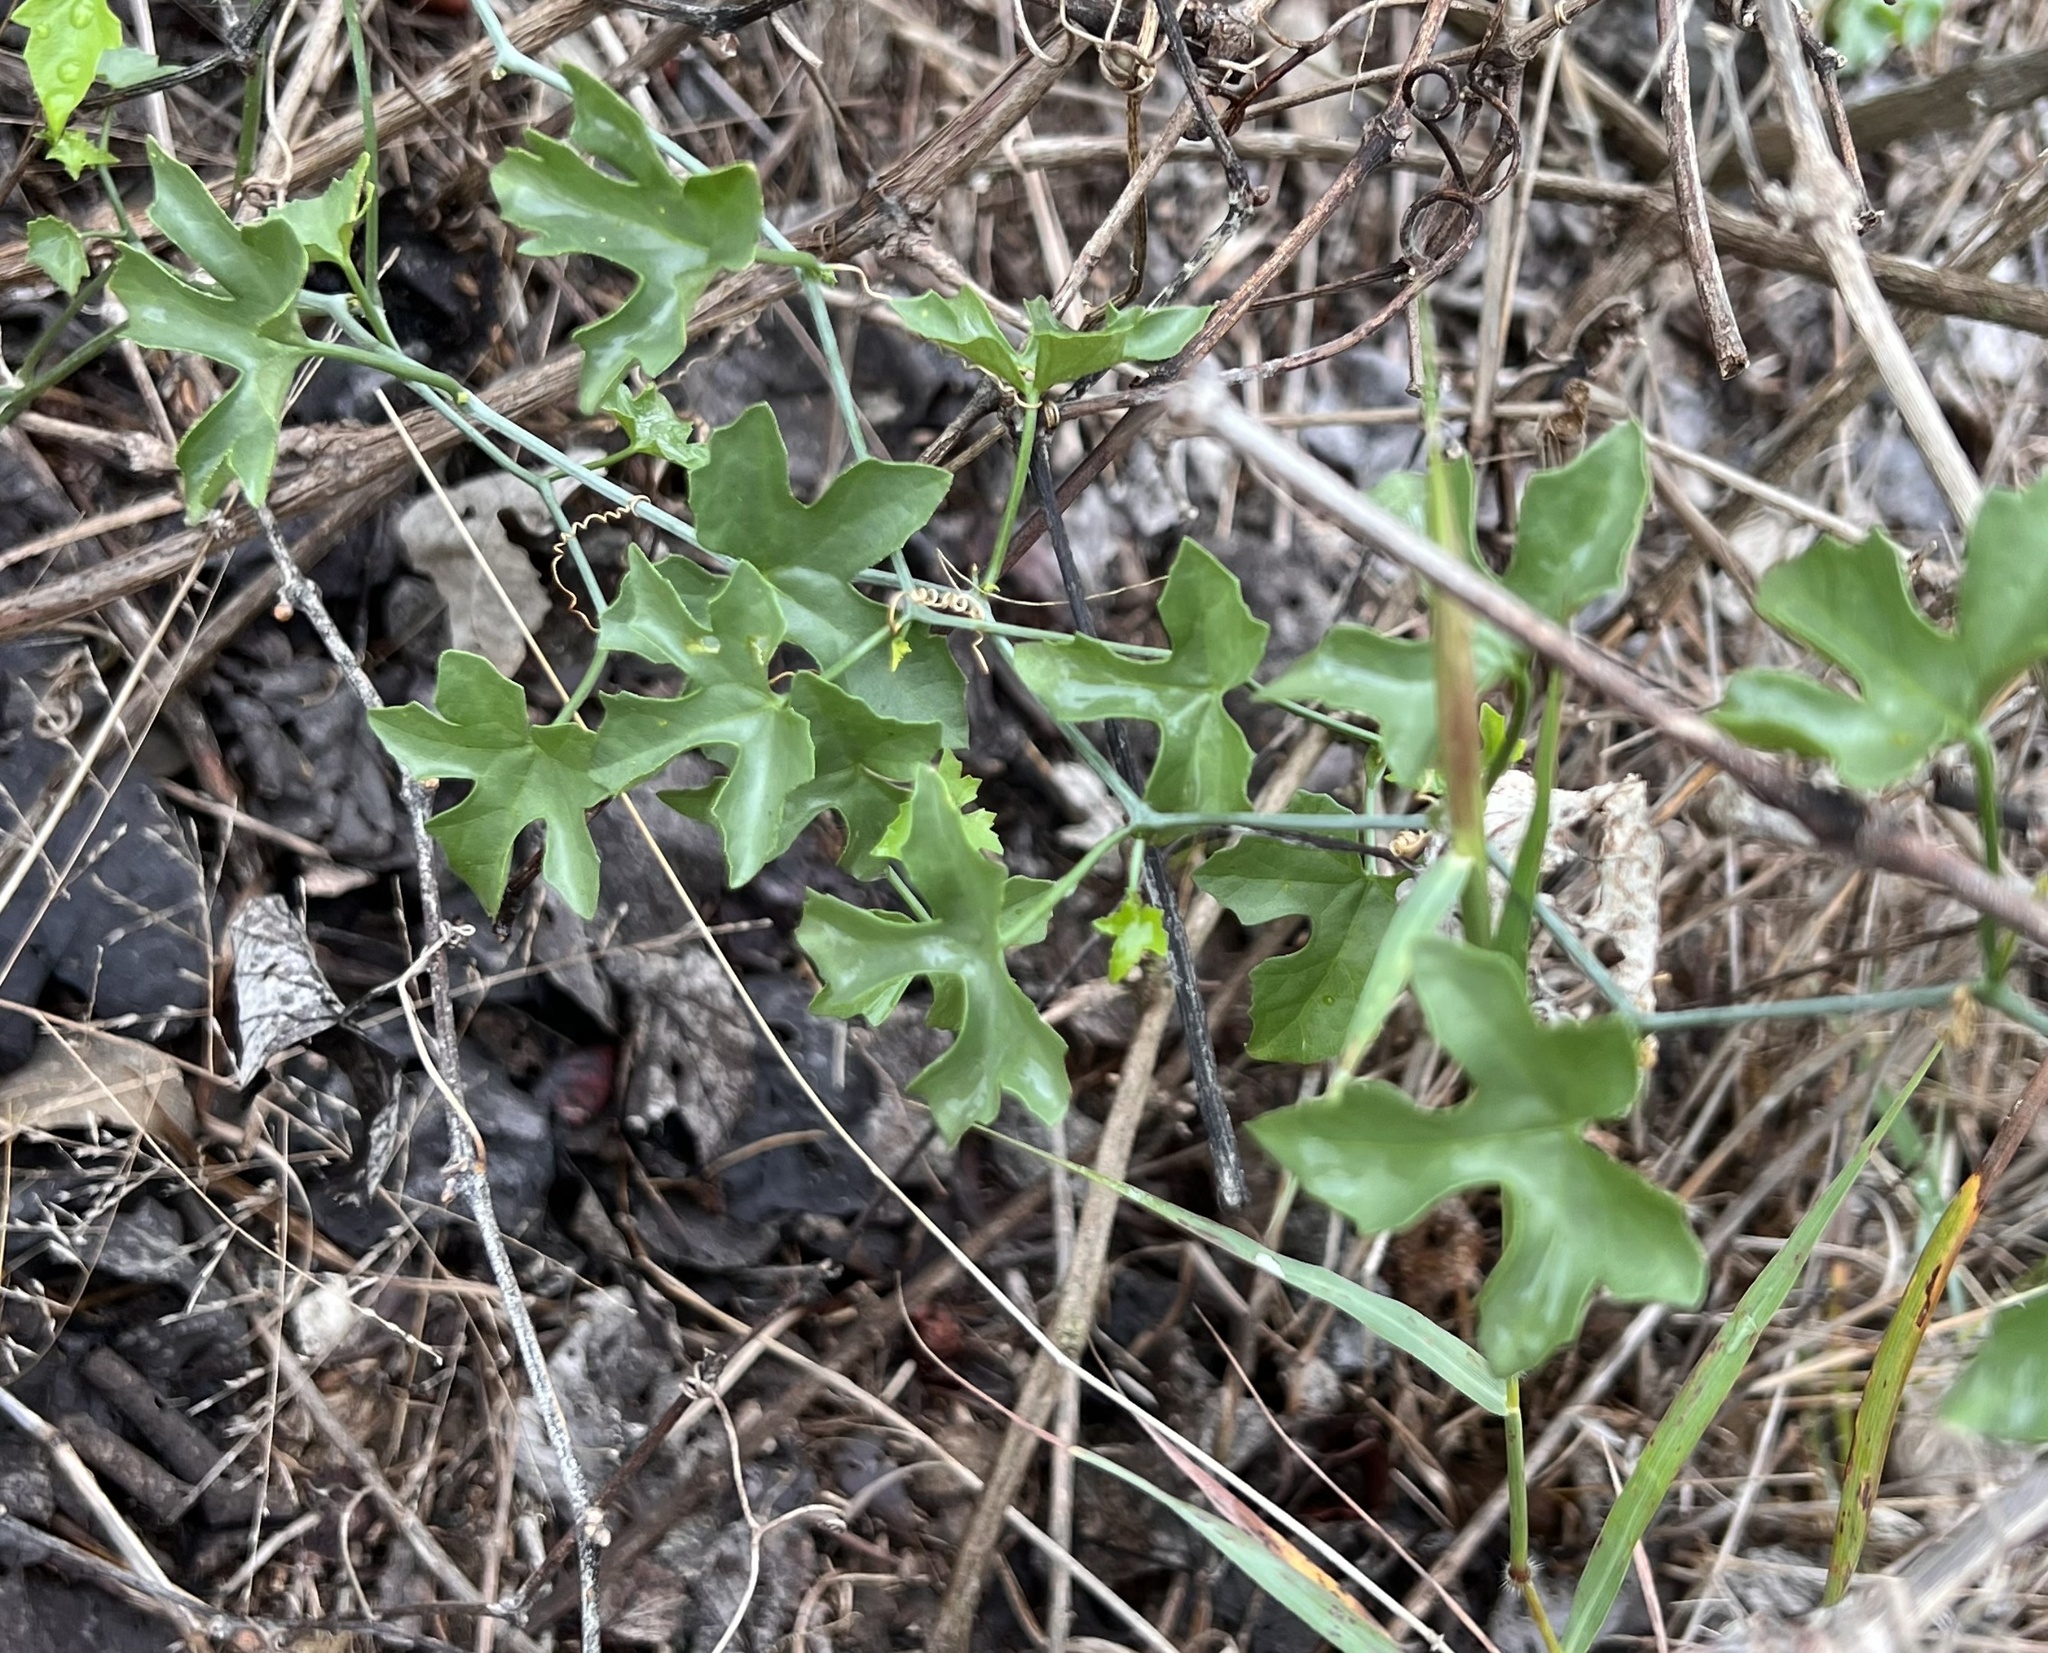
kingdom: Plantae
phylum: Tracheophyta
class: Magnoliopsida
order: Cucurbitales
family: Cucurbitaceae
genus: Ibervillea
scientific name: Ibervillea lindheimeri
